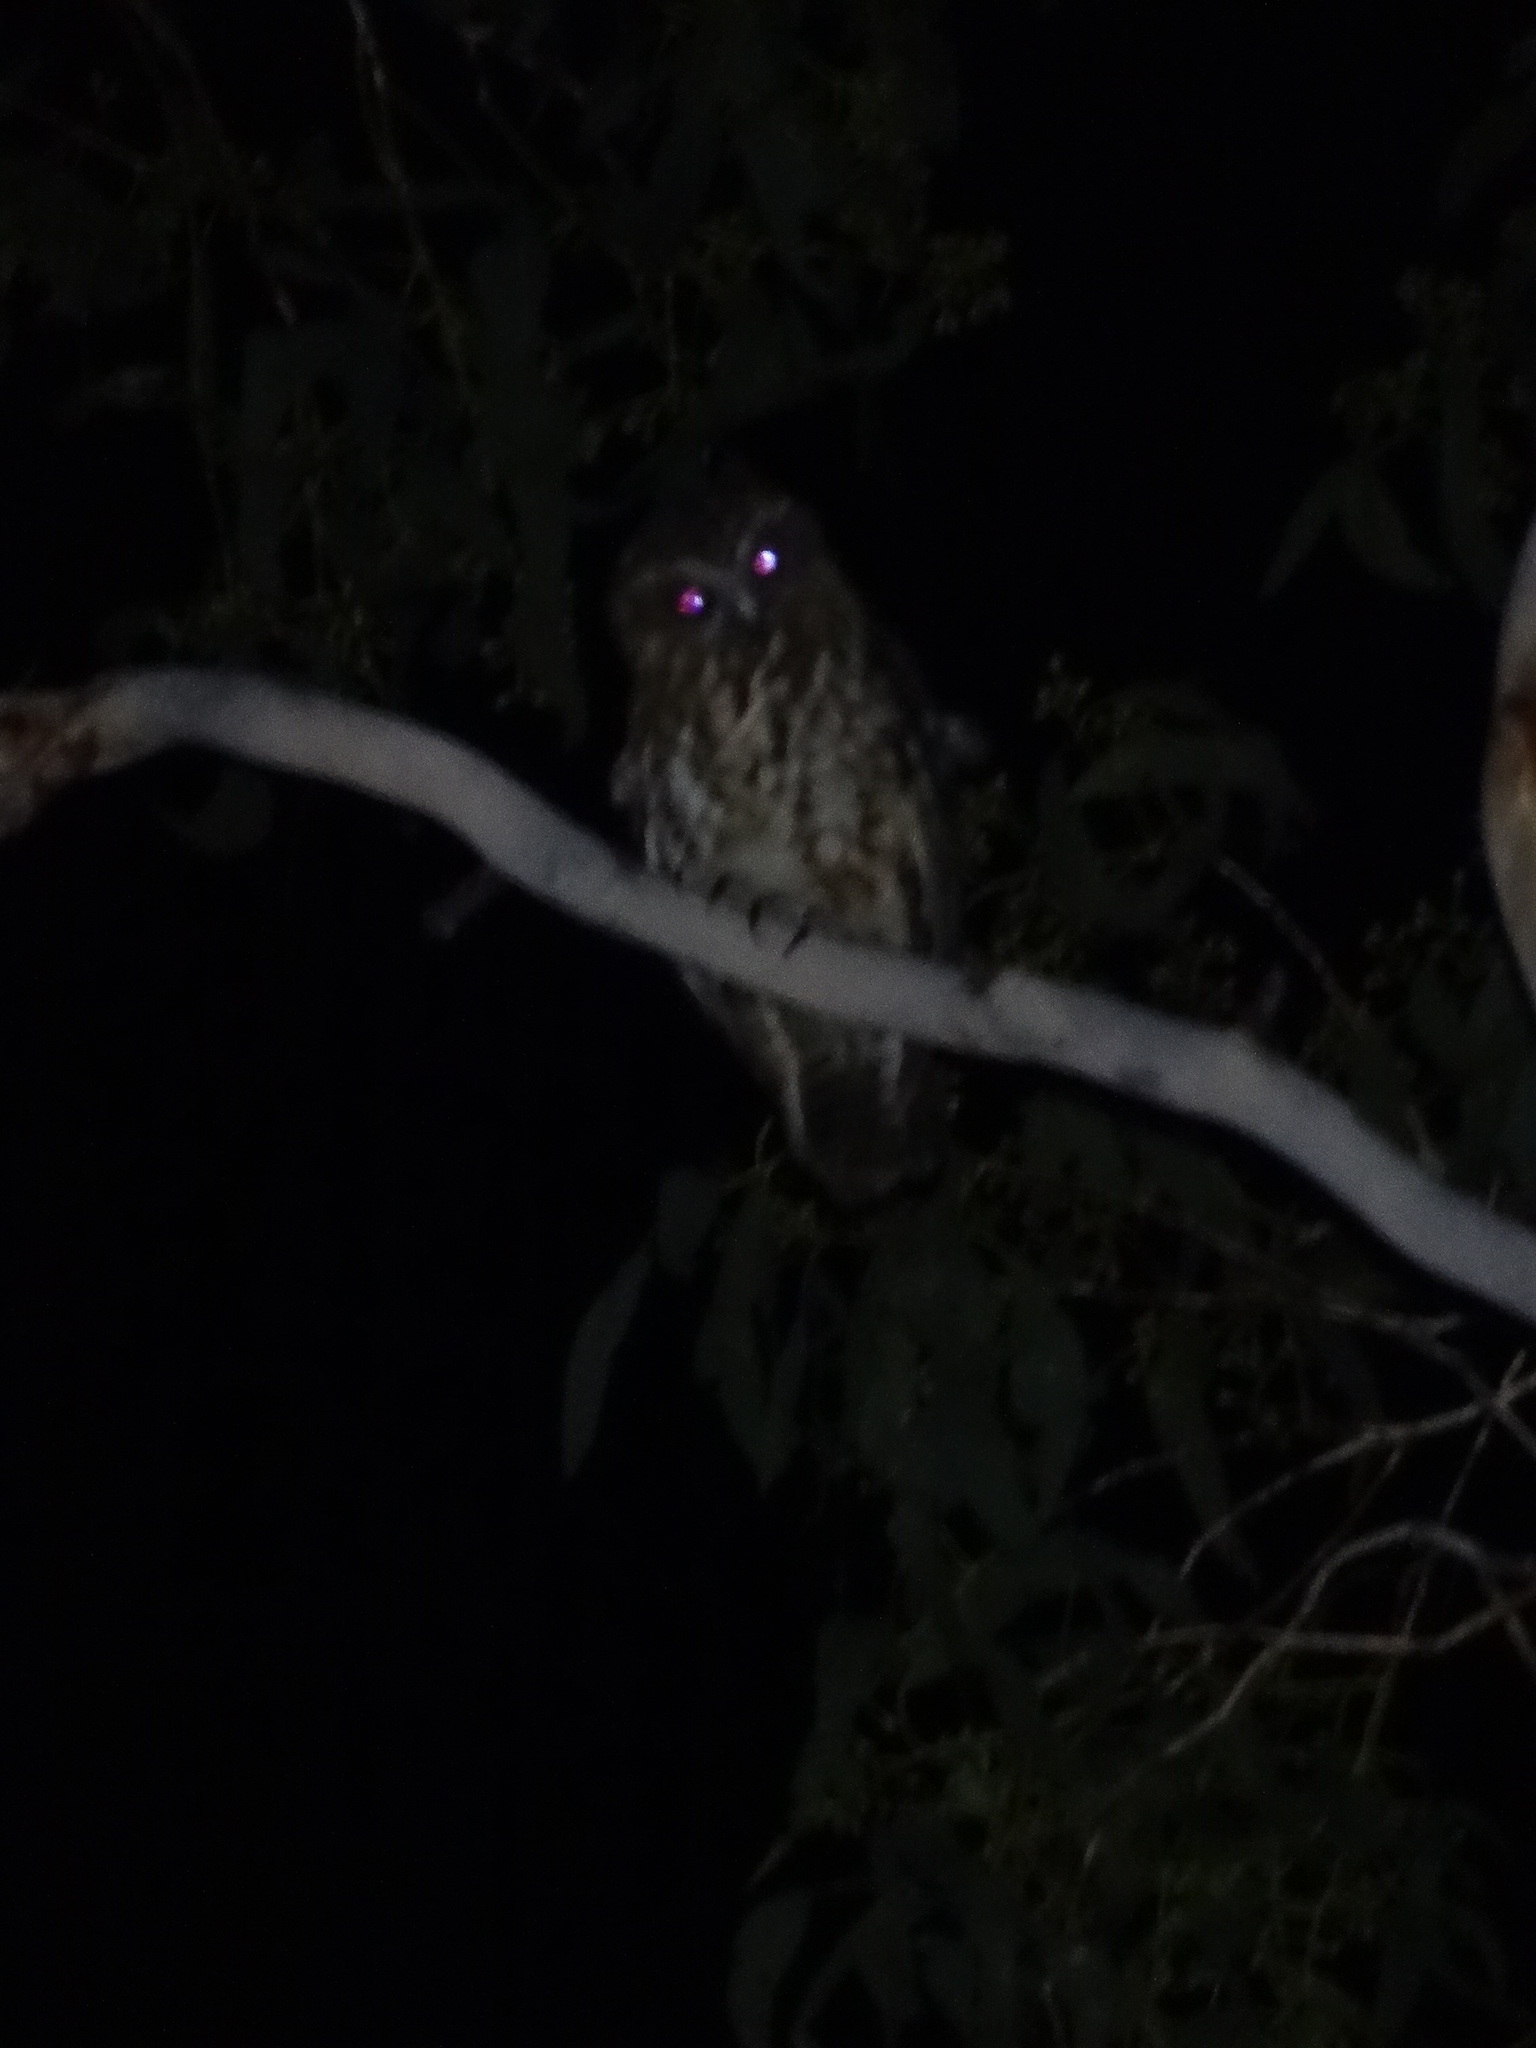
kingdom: Animalia
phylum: Chordata
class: Aves
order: Strigiformes
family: Strigidae
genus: Ninox
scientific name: Ninox boobook
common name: Southern boobook
